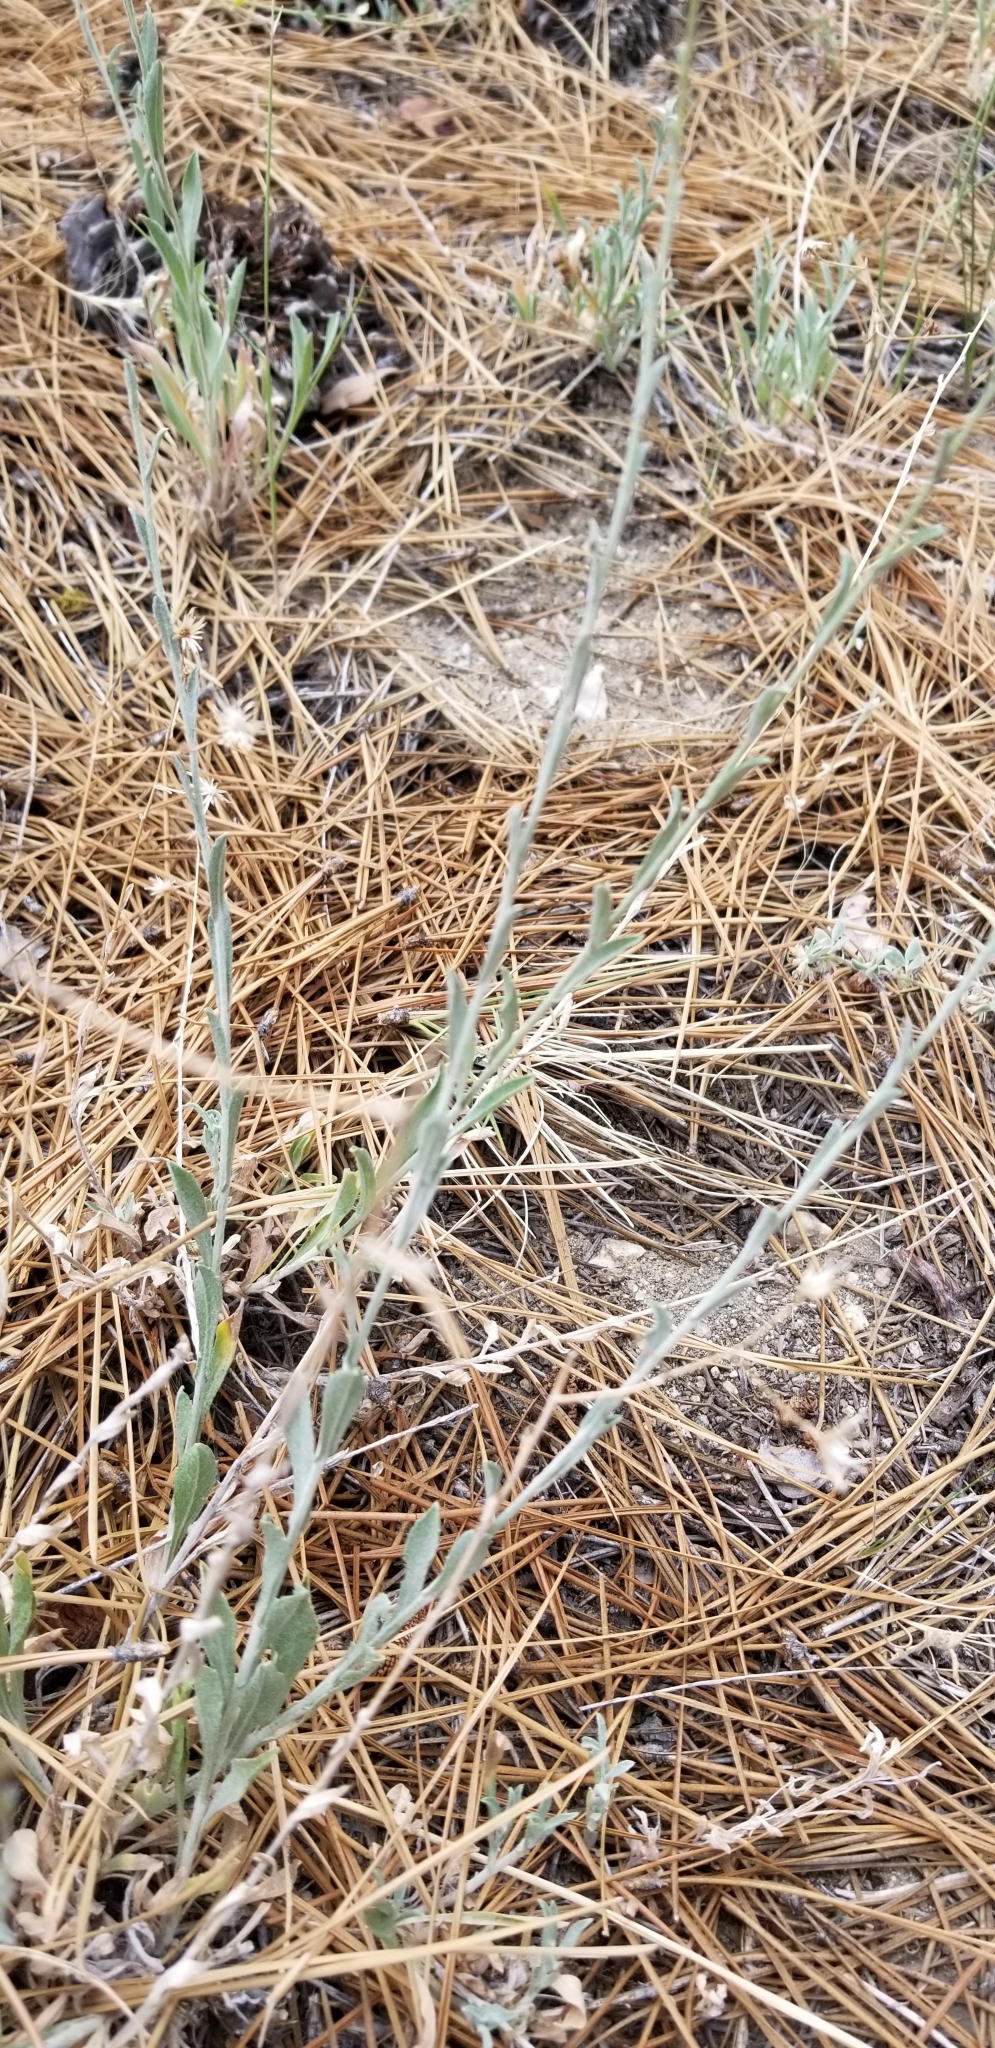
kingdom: Plantae
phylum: Tracheophyta
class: Magnoliopsida
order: Asterales
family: Asteraceae
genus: Corethrogyne
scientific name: Corethrogyne filaginifolia
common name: Sand-aster
